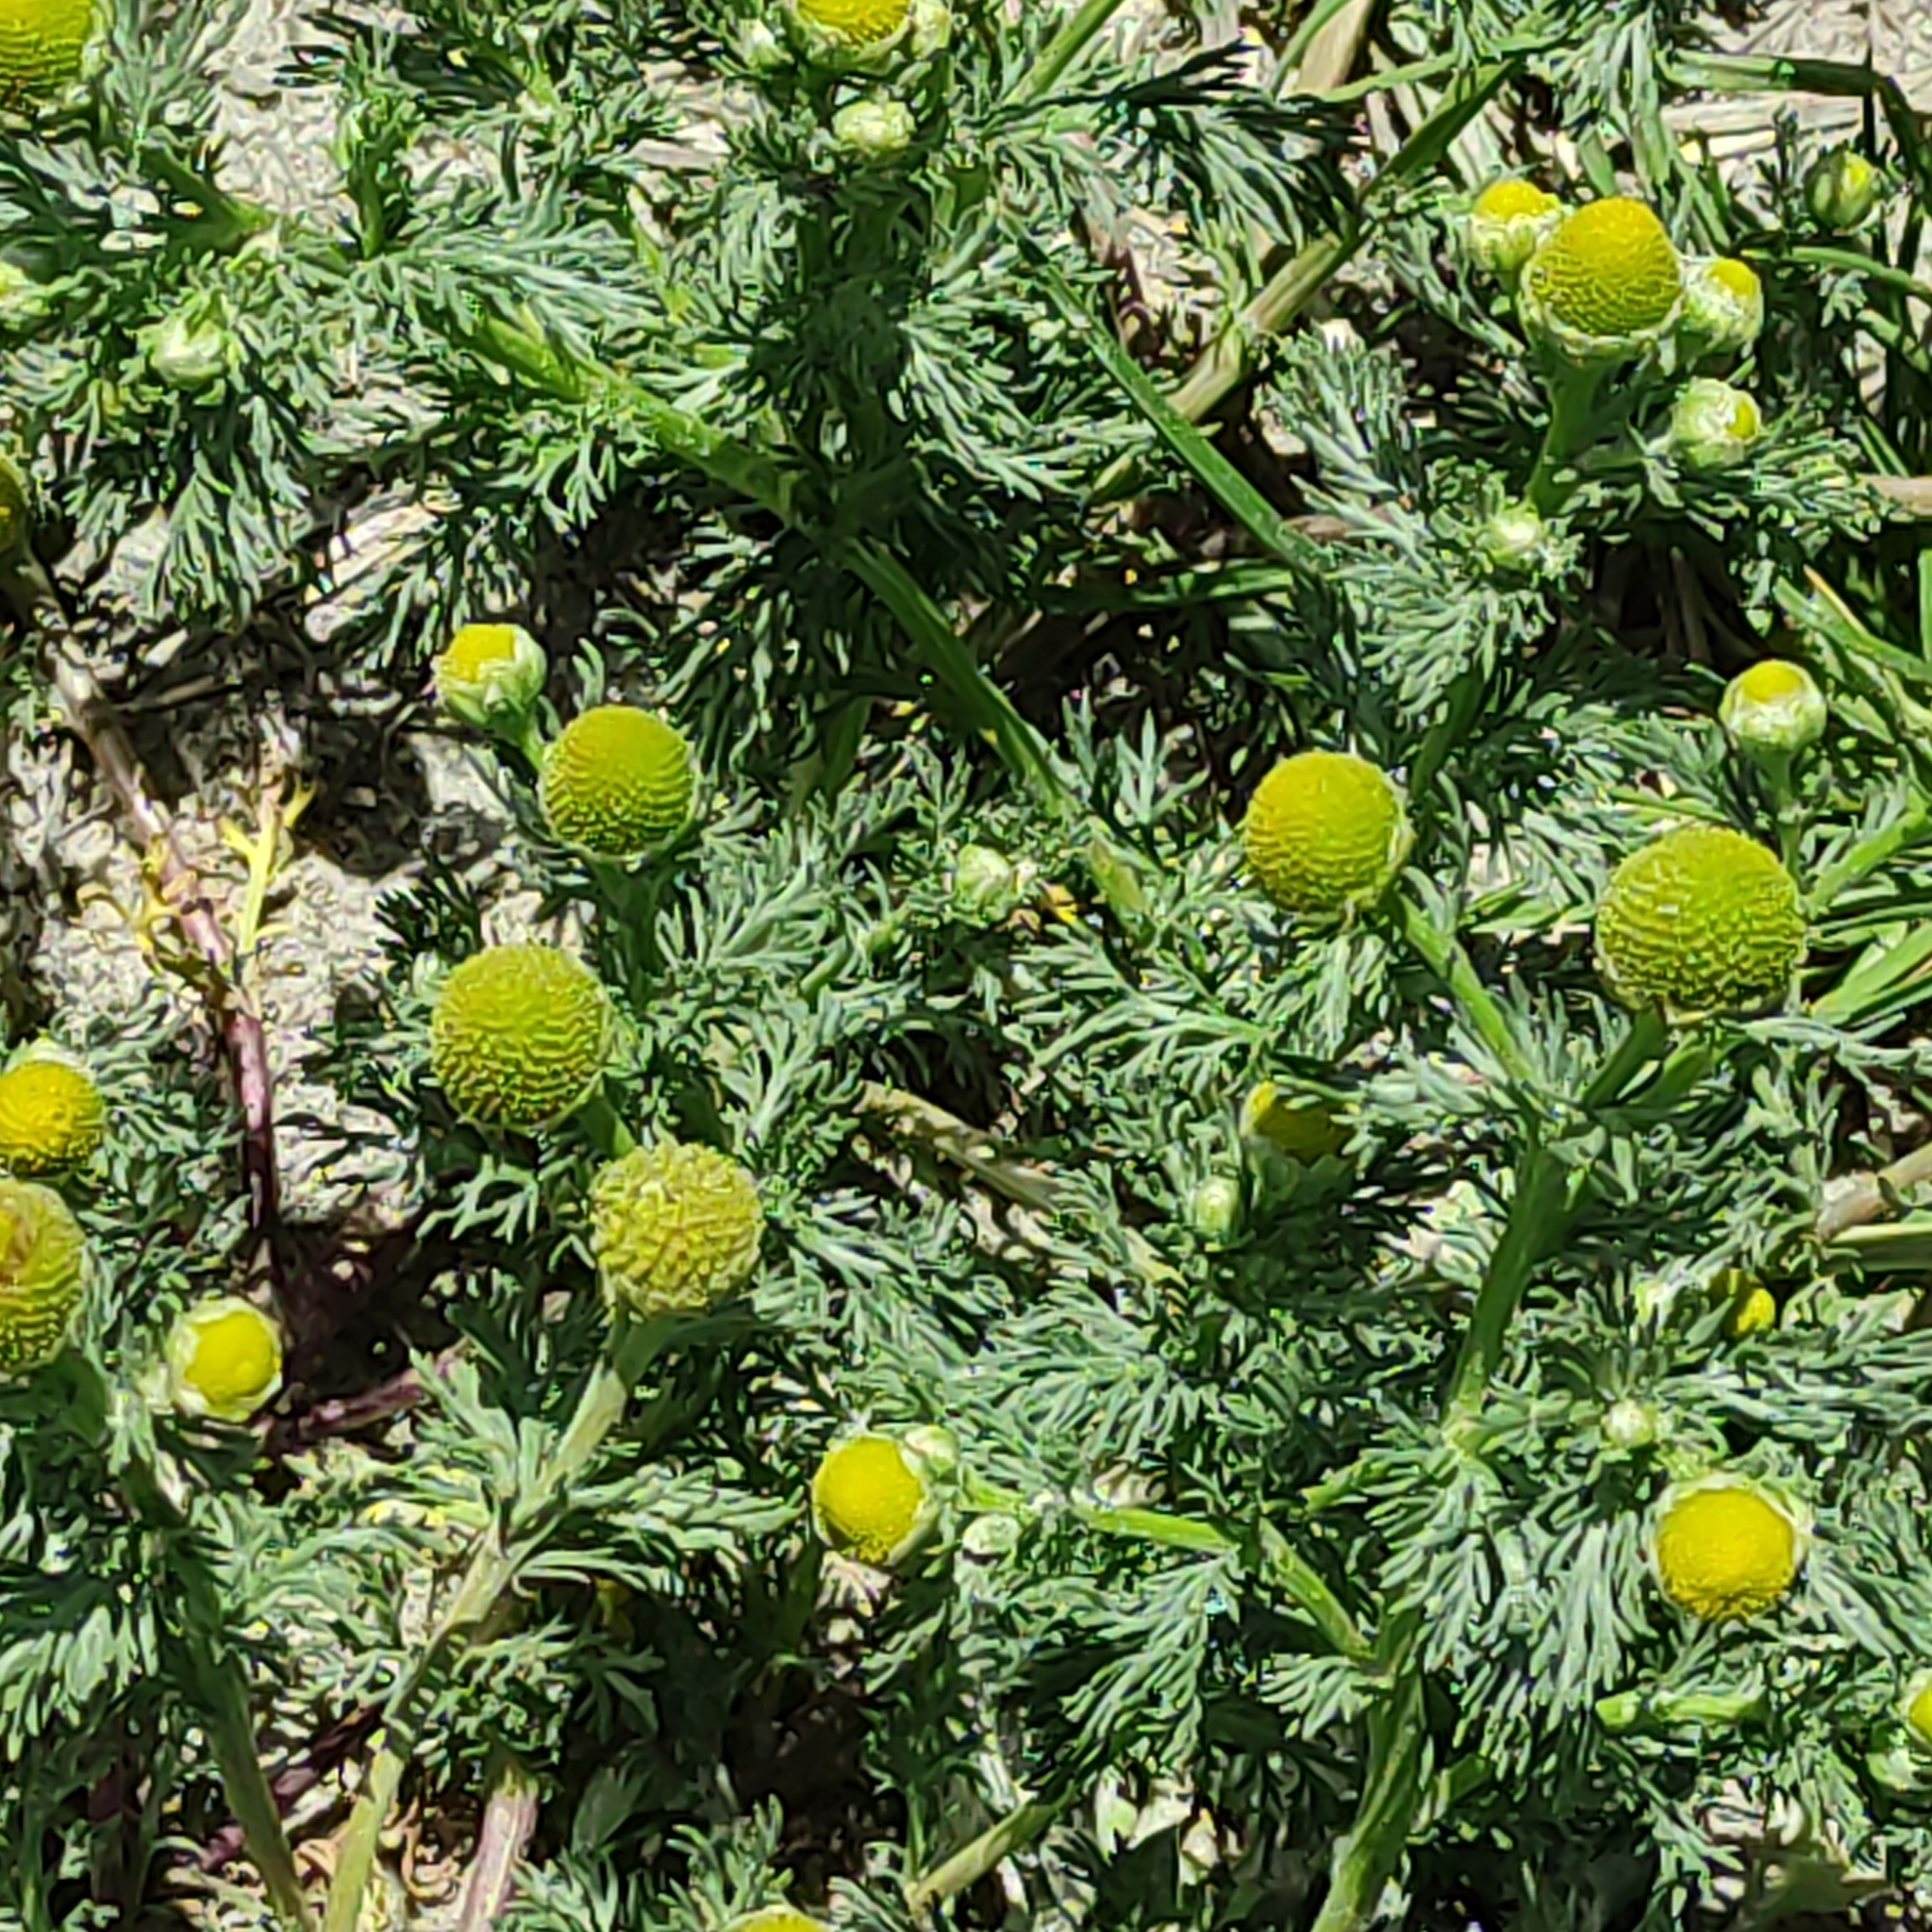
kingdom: Plantae
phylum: Tracheophyta
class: Magnoliopsida
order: Asterales
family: Asteraceae
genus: Matricaria
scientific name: Matricaria discoidea
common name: Disc mayweed
